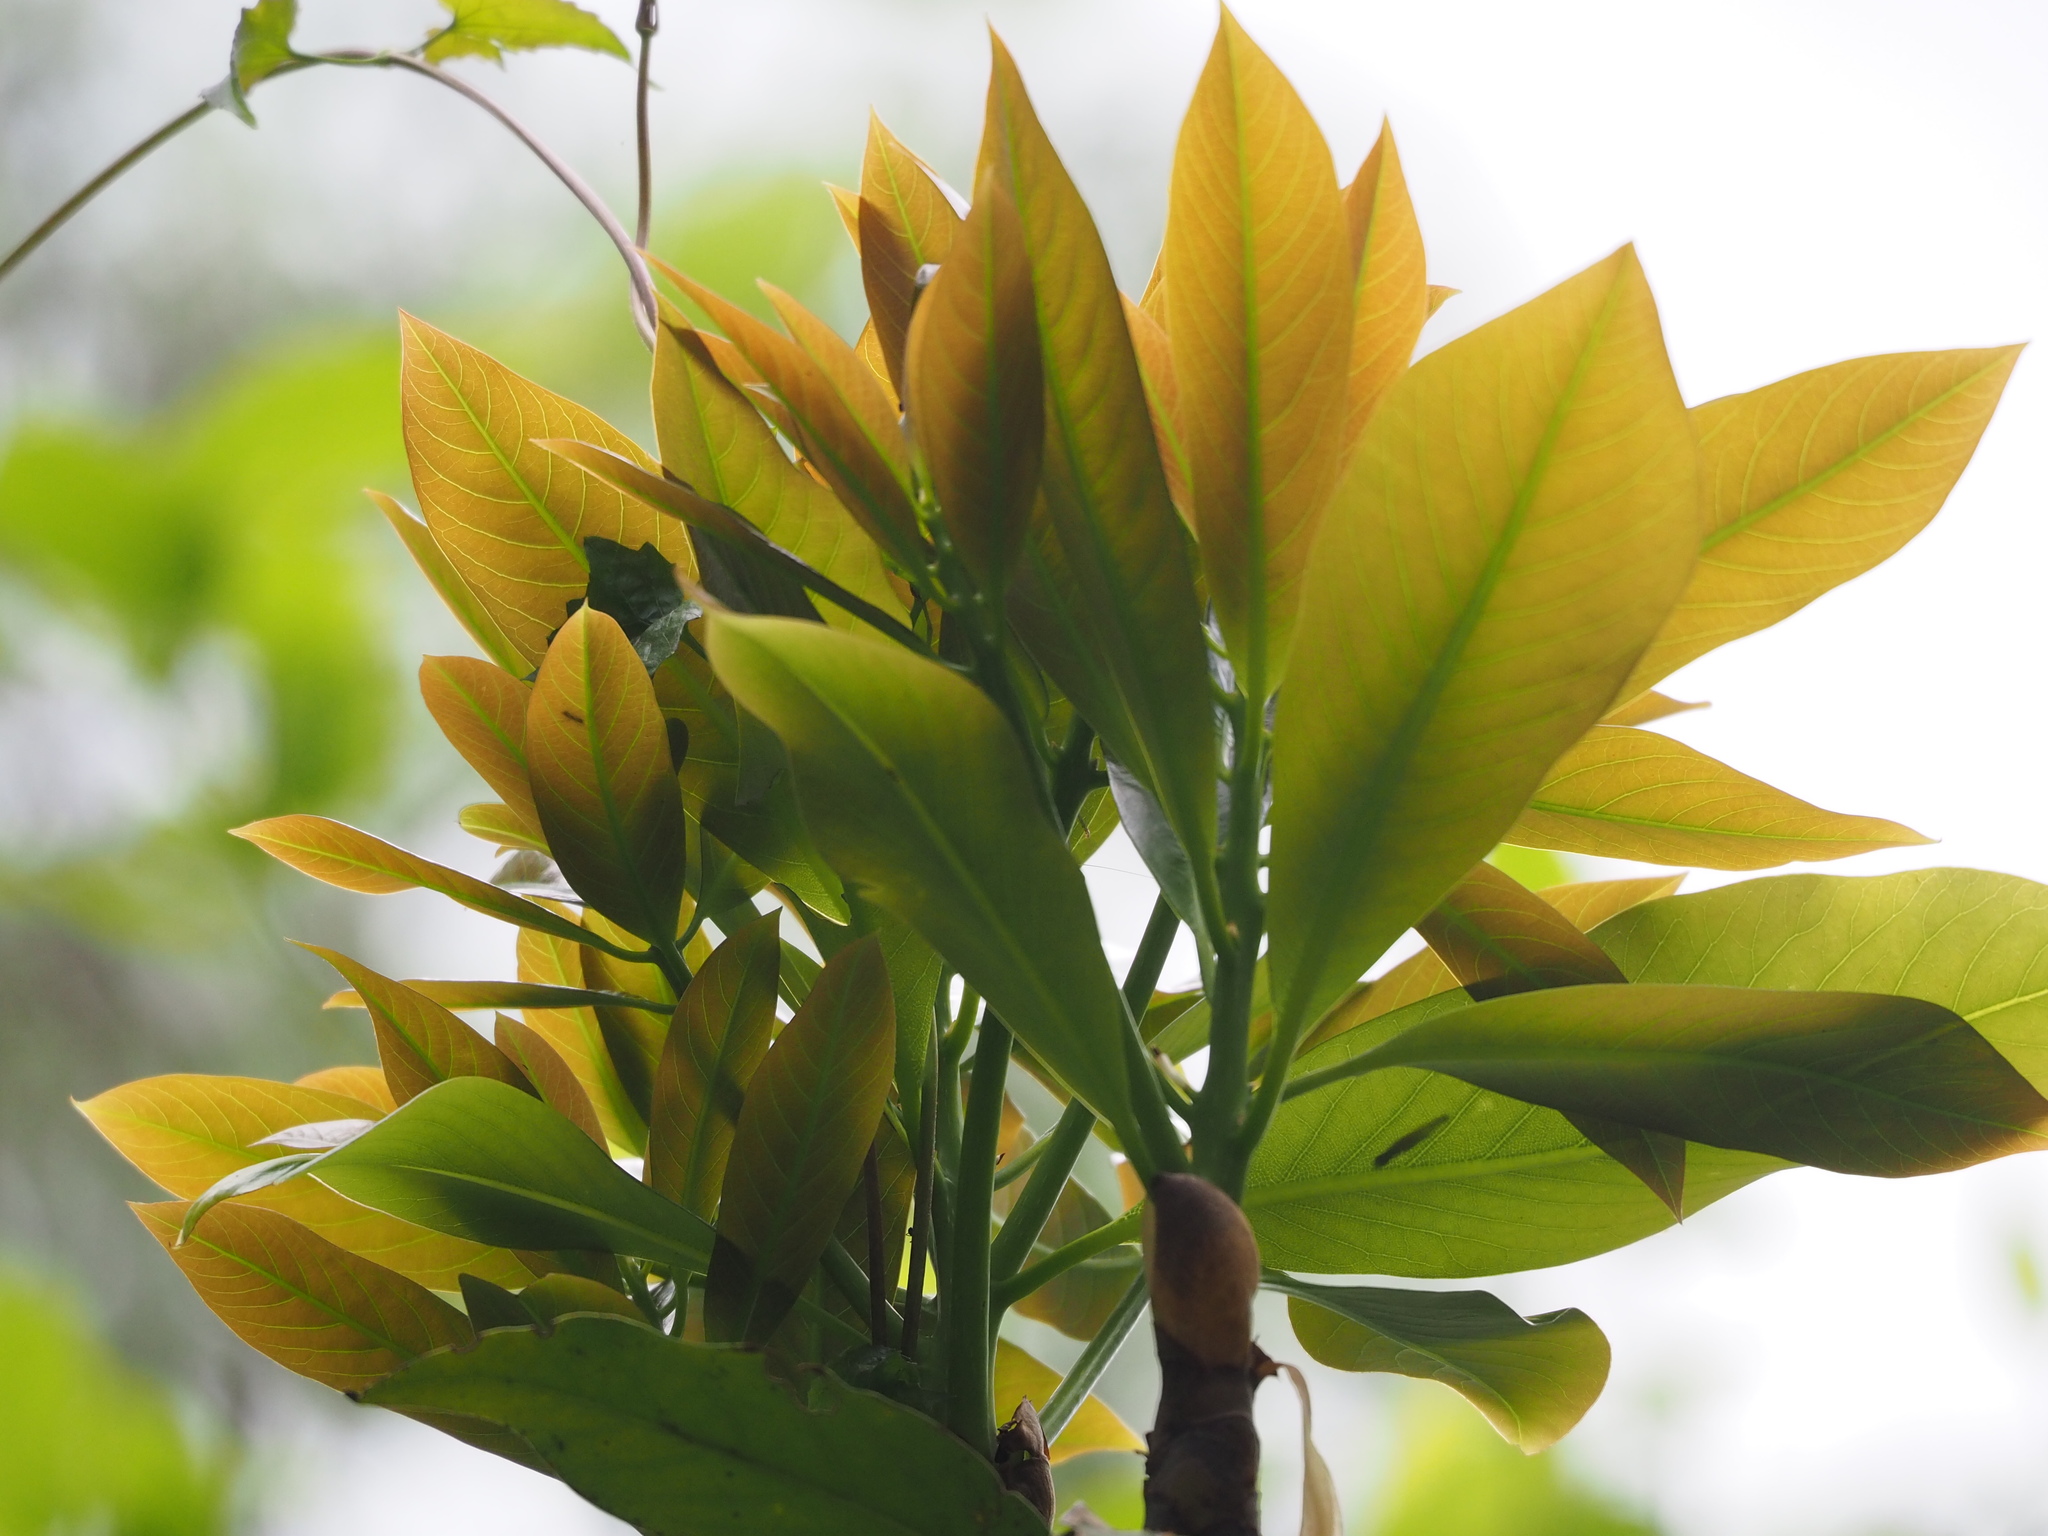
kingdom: Plantae
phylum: Tracheophyta
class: Magnoliopsida
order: Laurales
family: Lauraceae
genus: Machilus
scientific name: Machilus japonica
